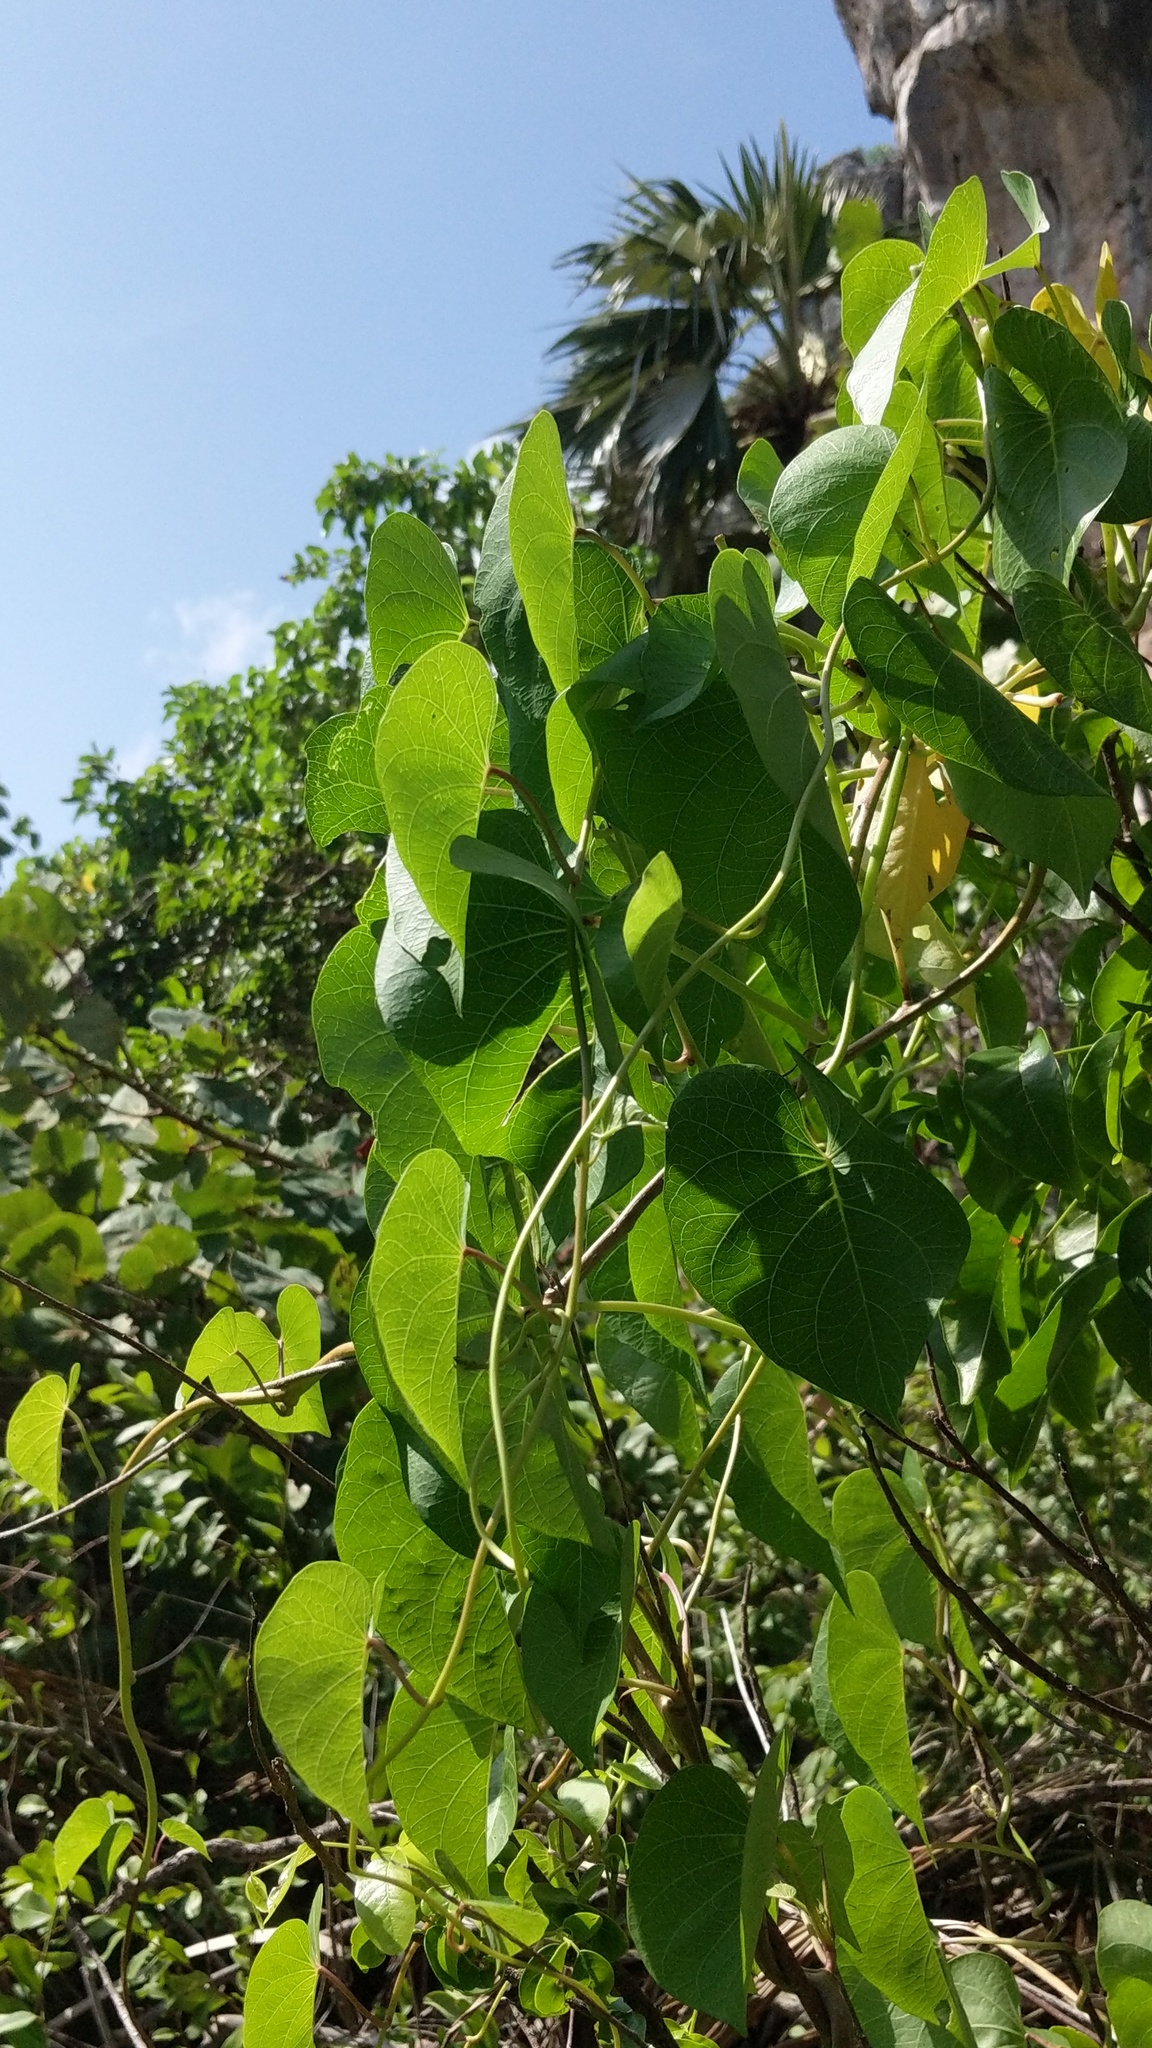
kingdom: Plantae
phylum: Tracheophyta
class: Magnoliopsida
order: Solanales
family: Convolvulaceae
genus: Ipomoea
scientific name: Ipomoea violacea
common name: Beach moonflower
